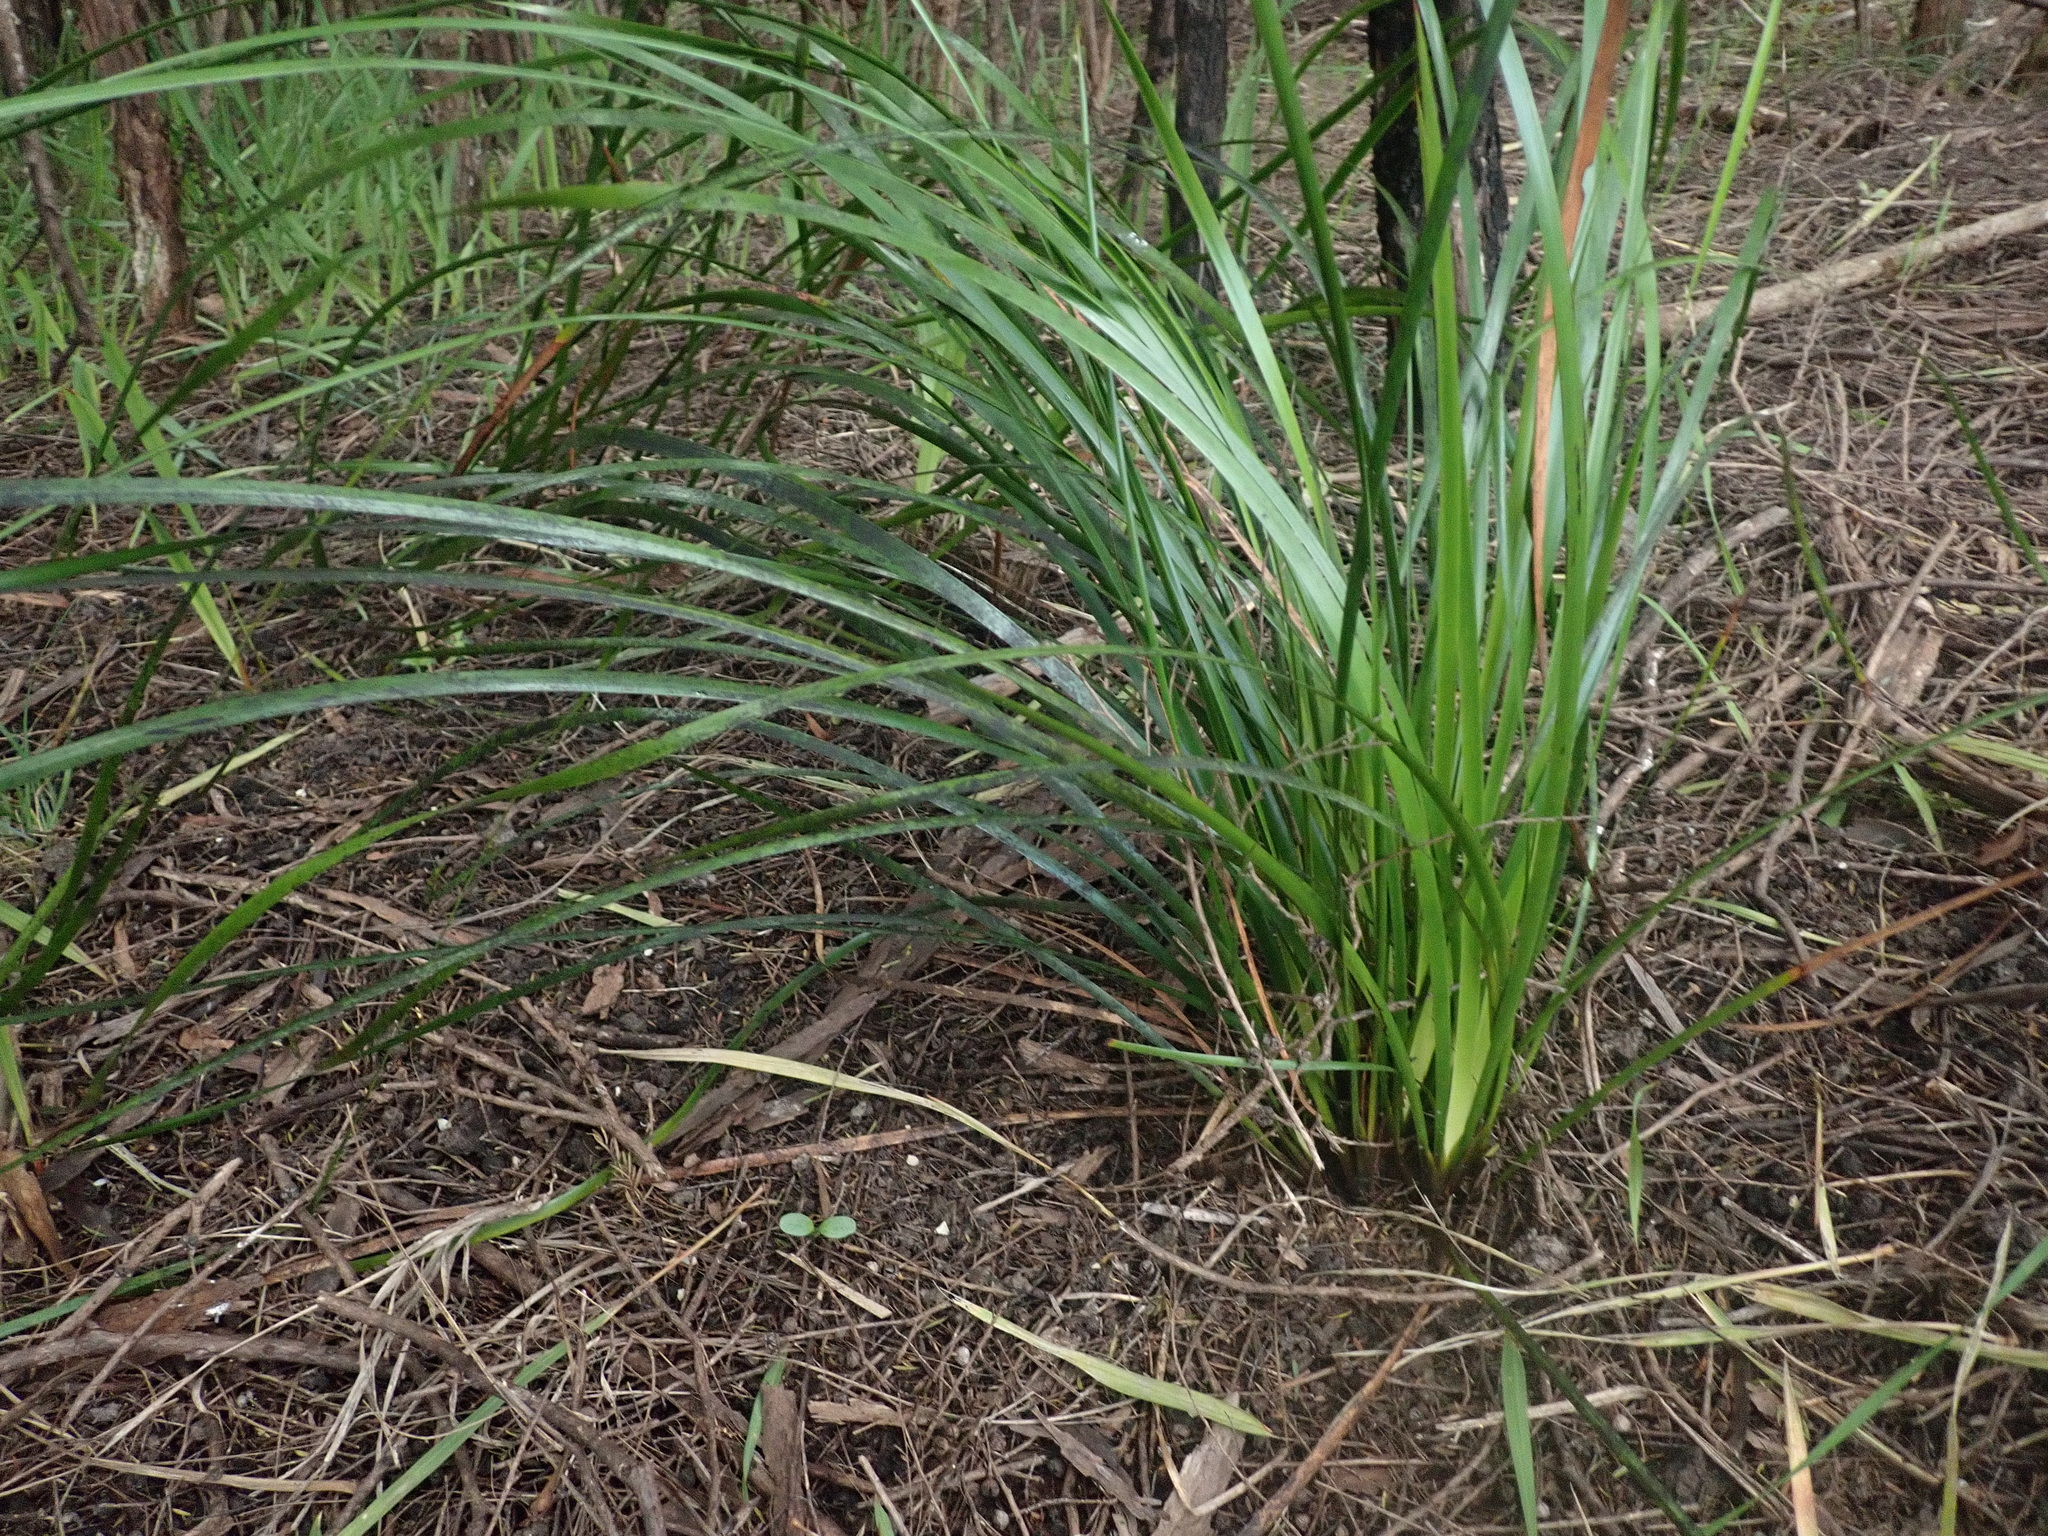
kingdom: Plantae
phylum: Tracheophyta
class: Magnoliopsida
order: Gentianales
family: Rubiaceae
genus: Coprosma
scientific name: Coprosma lucida
